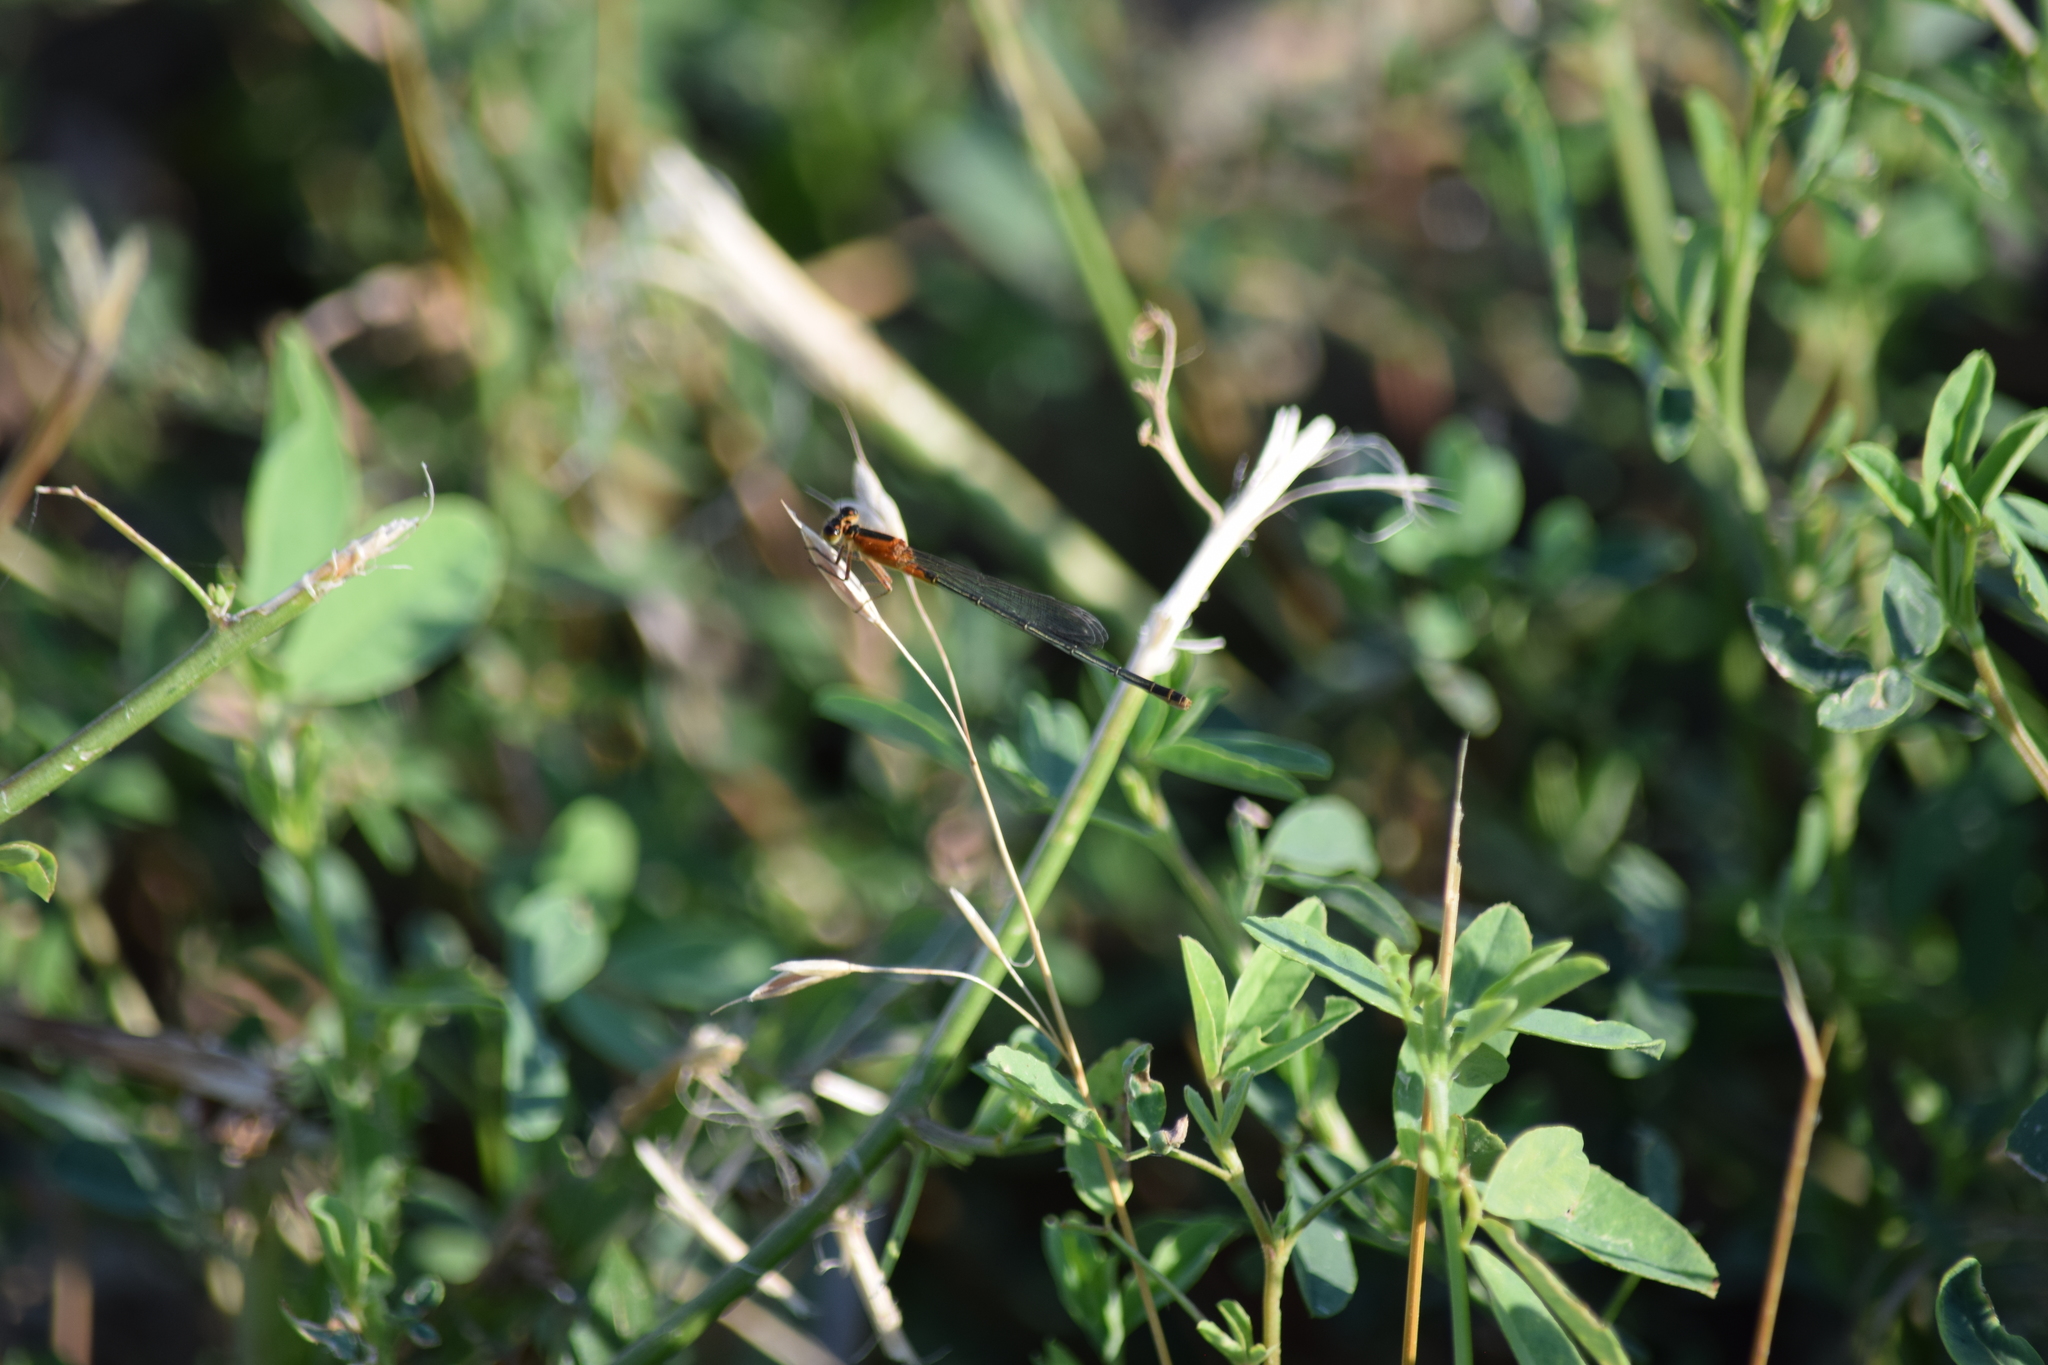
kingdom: Animalia
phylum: Arthropoda
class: Insecta
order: Odonata
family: Coenagrionidae
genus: Ischnura
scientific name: Ischnura ramburii
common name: Rambur's forktail
